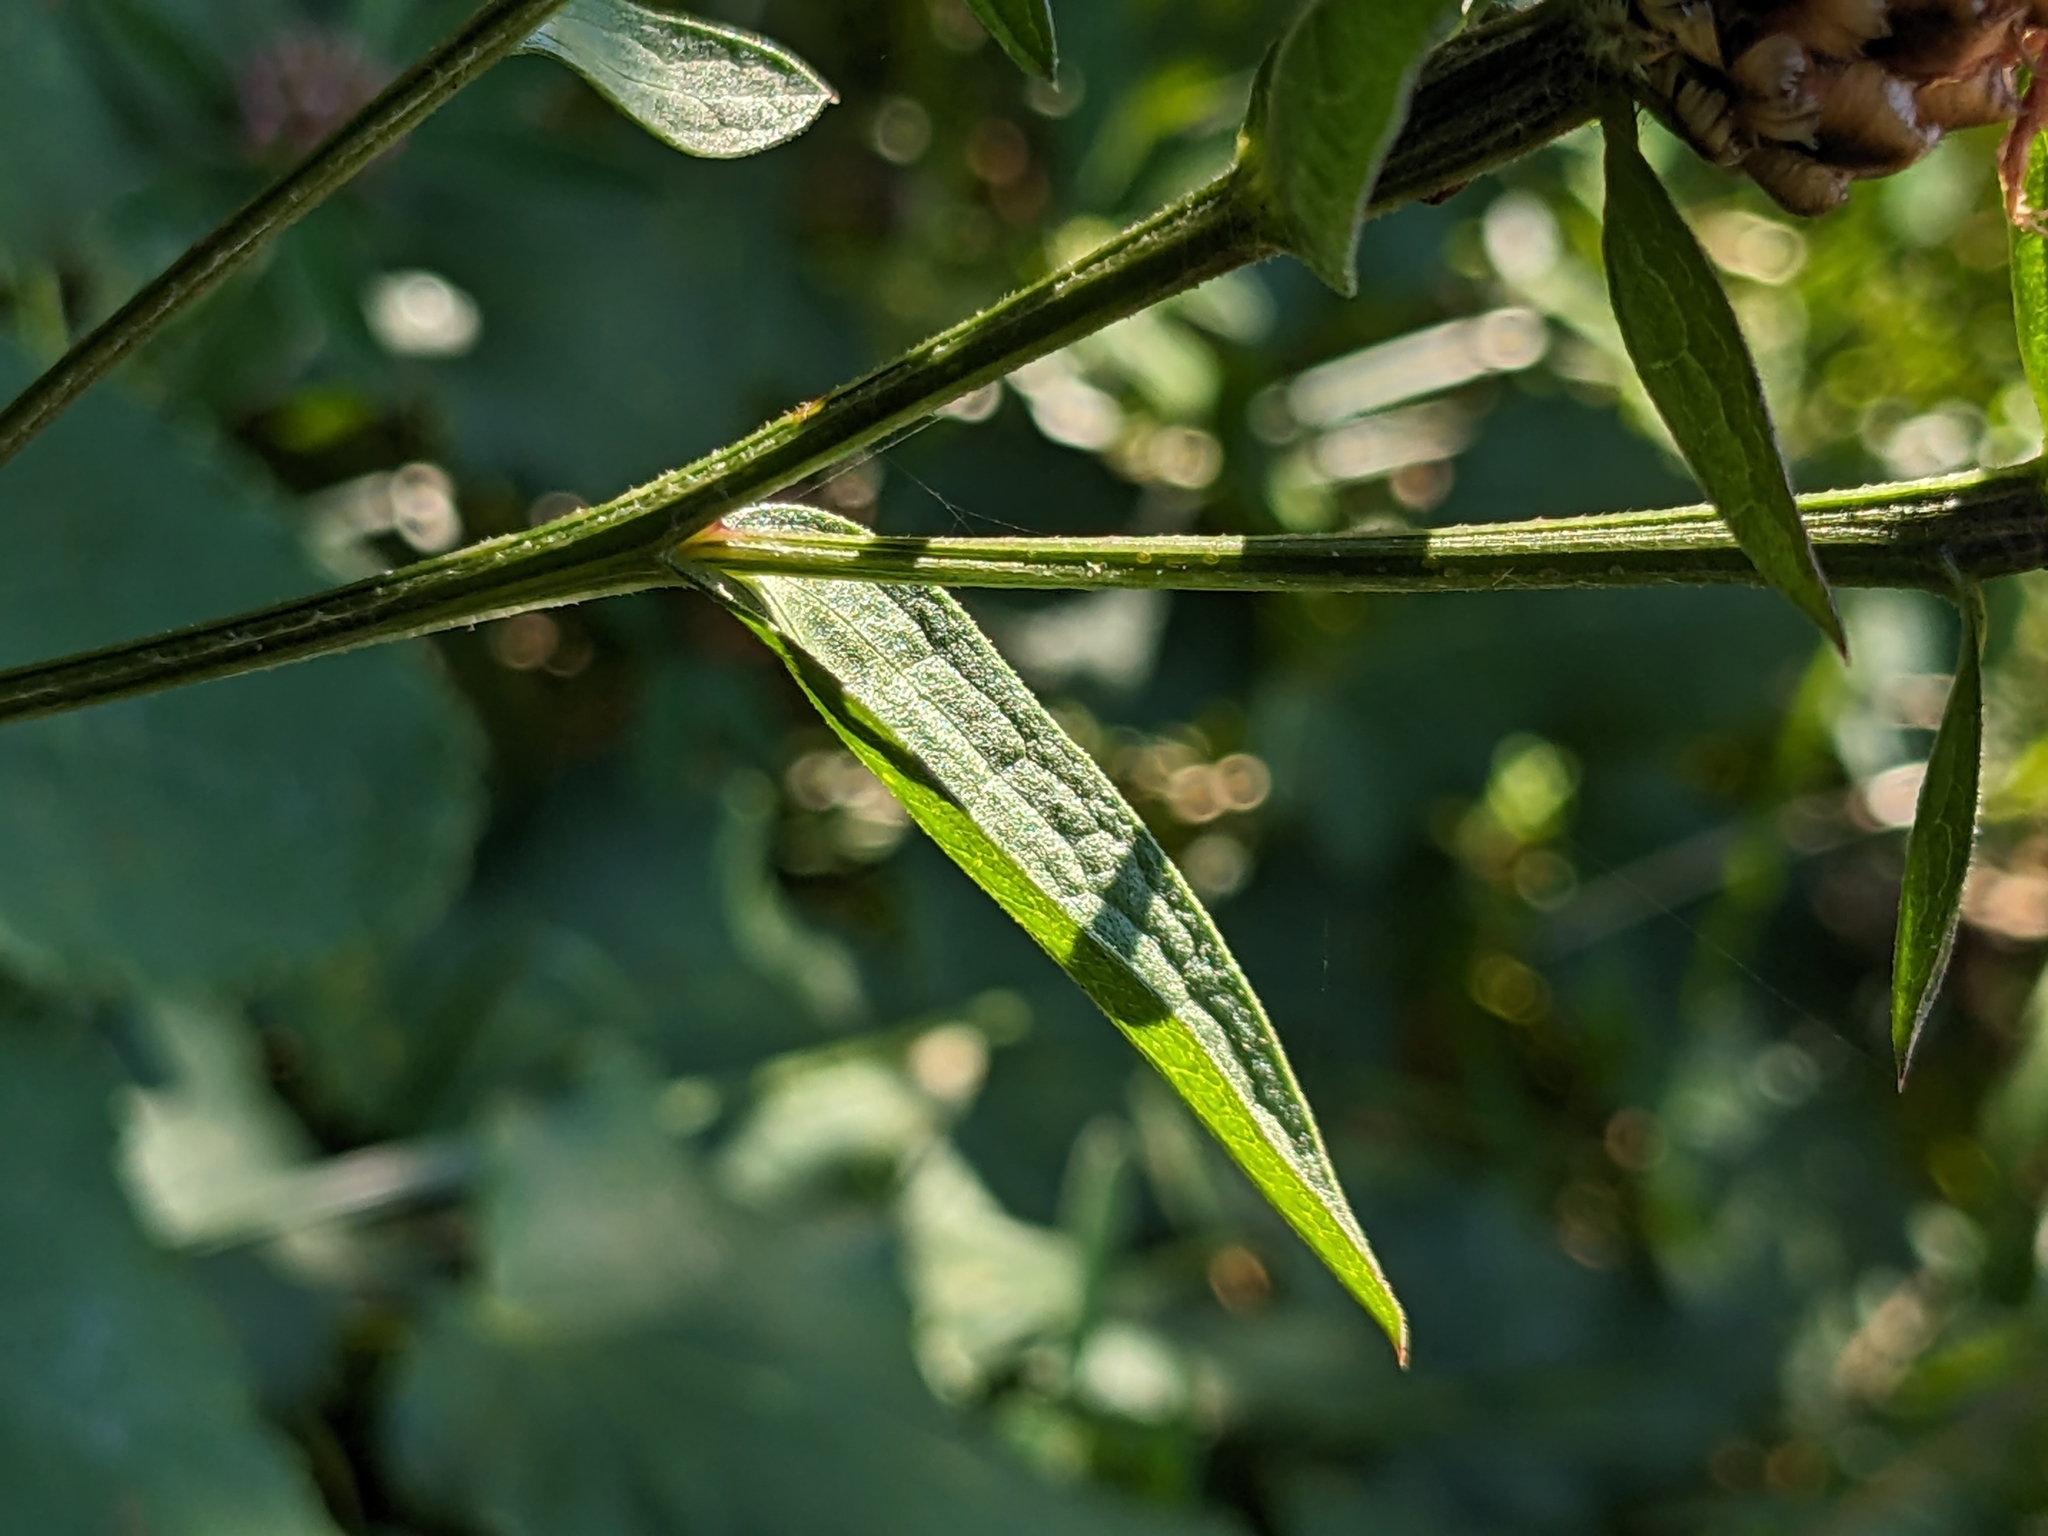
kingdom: Plantae
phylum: Tracheophyta
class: Magnoliopsida
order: Asterales
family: Asteraceae
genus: Centaurea
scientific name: Centaurea jacea
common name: Brown knapweed
